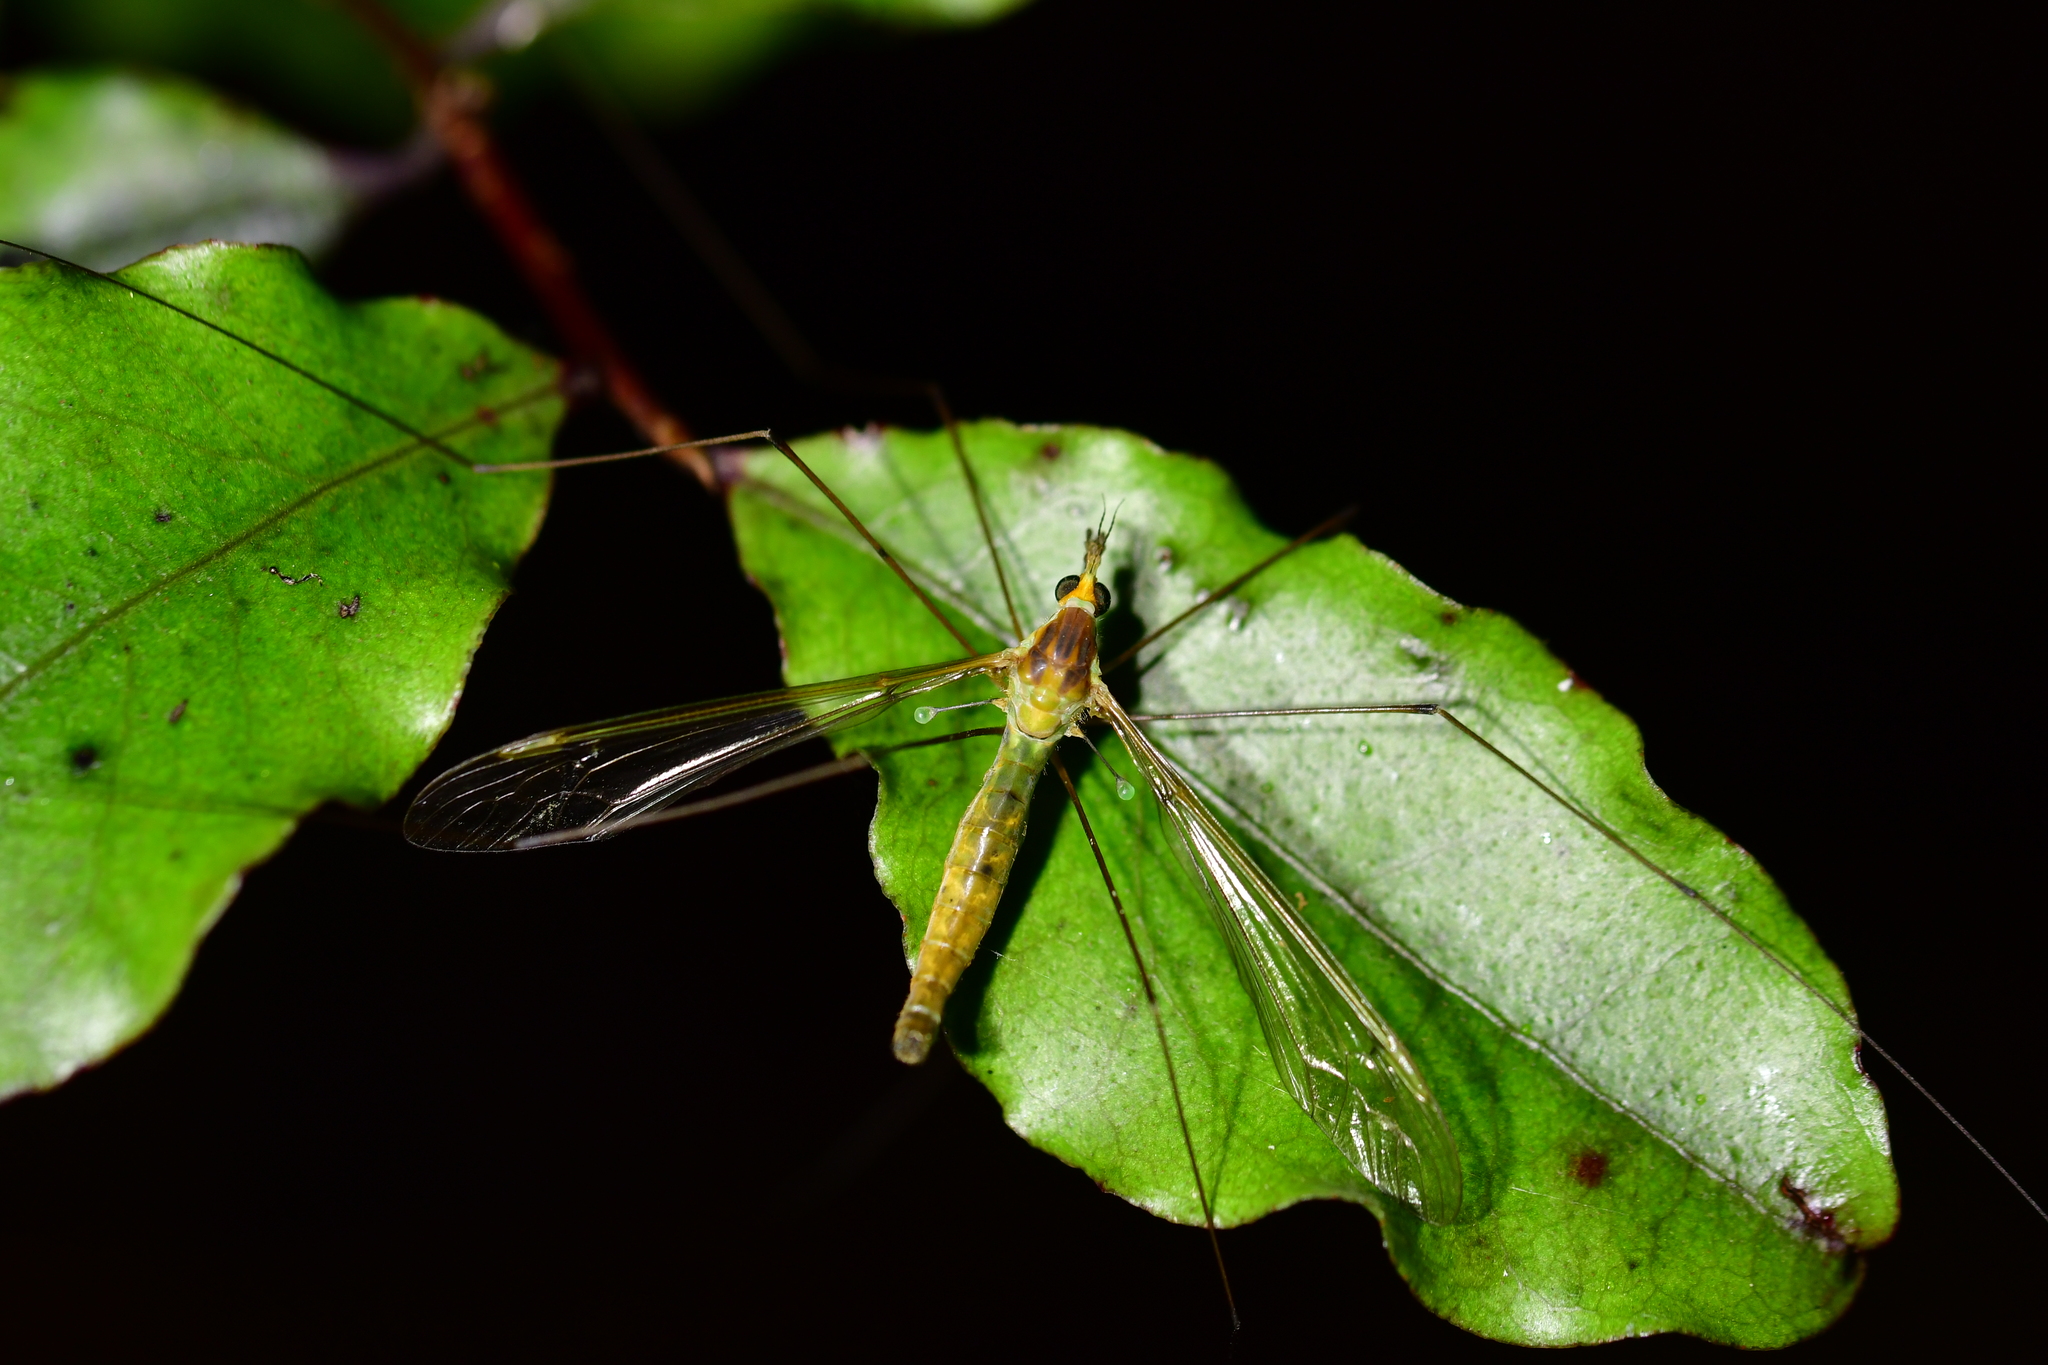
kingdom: Animalia
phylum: Arthropoda
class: Insecta
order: Diptera
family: Tipulidae
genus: Leptotarsus
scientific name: Leptotarsus albistigma
